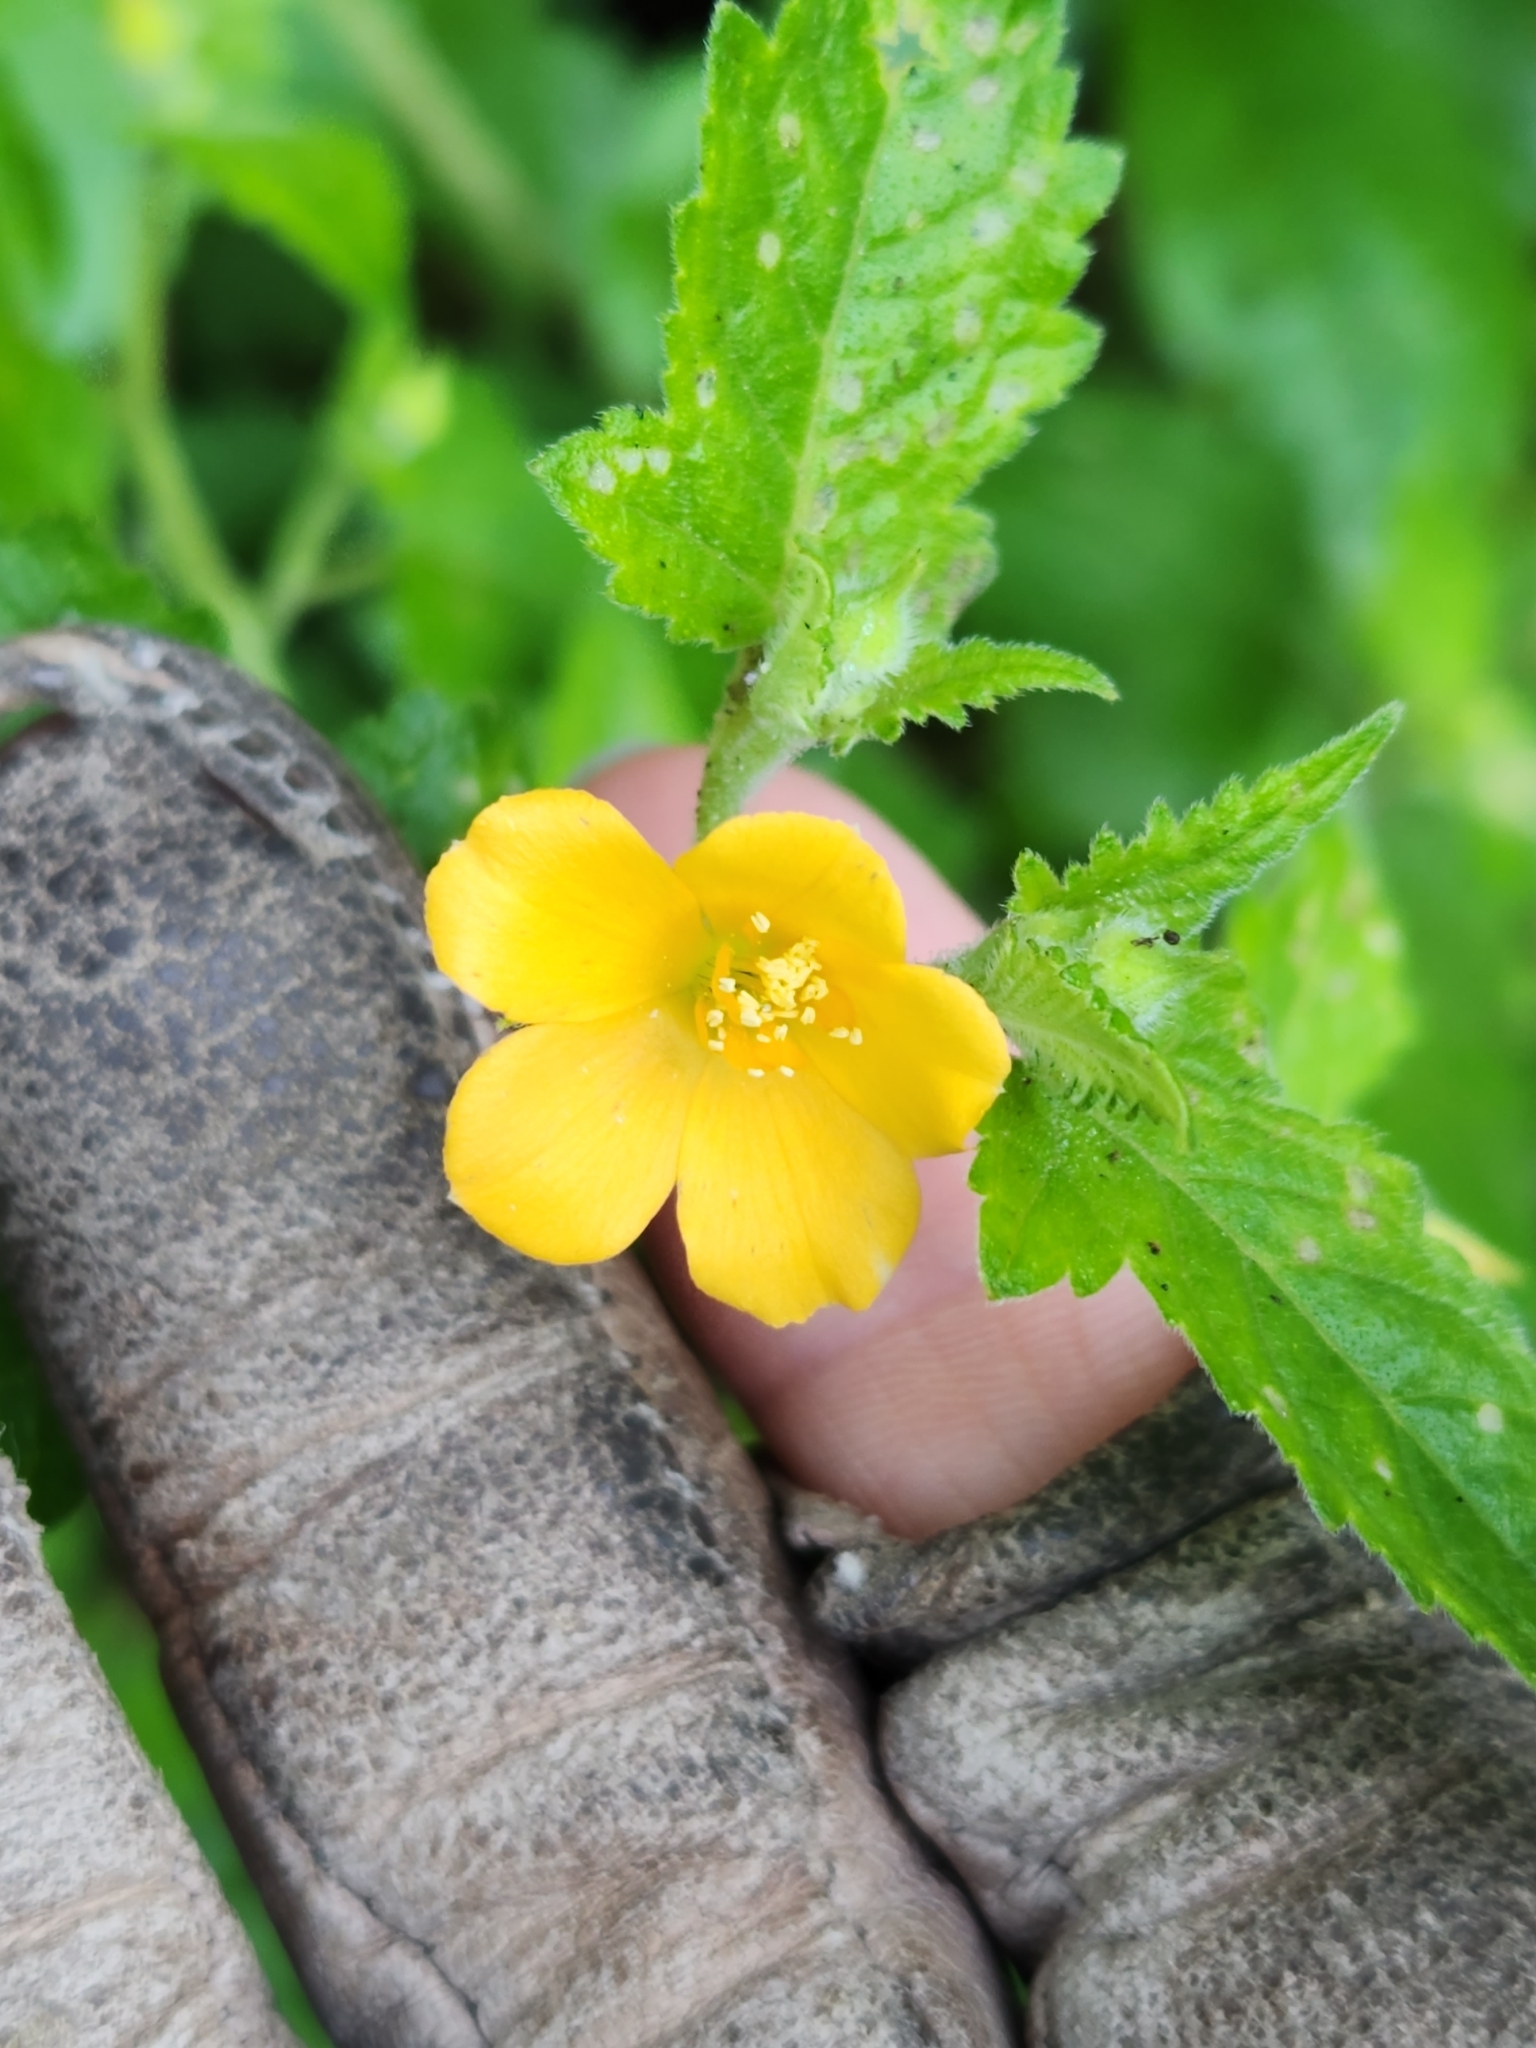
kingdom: Plantae
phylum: Tracheophyta
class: Magnoliopsida
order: Cornales
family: Loasaceae
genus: Mentzelia
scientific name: Mentzelia aspera
